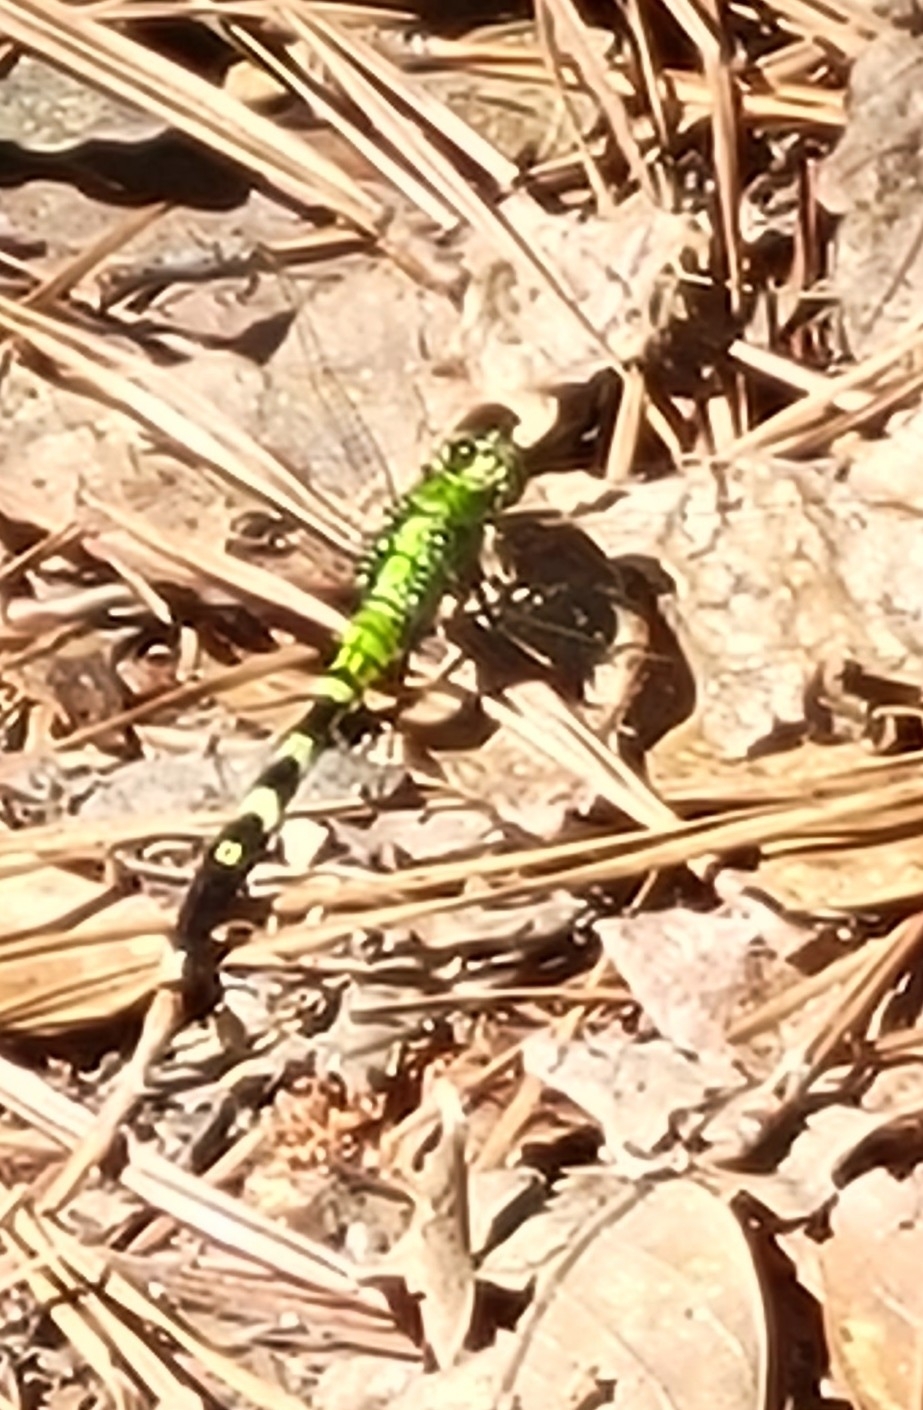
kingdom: Animalia
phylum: Arthropoda
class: Insecta
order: Odonata
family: Libellulidae
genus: Erythemis
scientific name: Erythemis simplicicollis
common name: Eastern pondhawk
